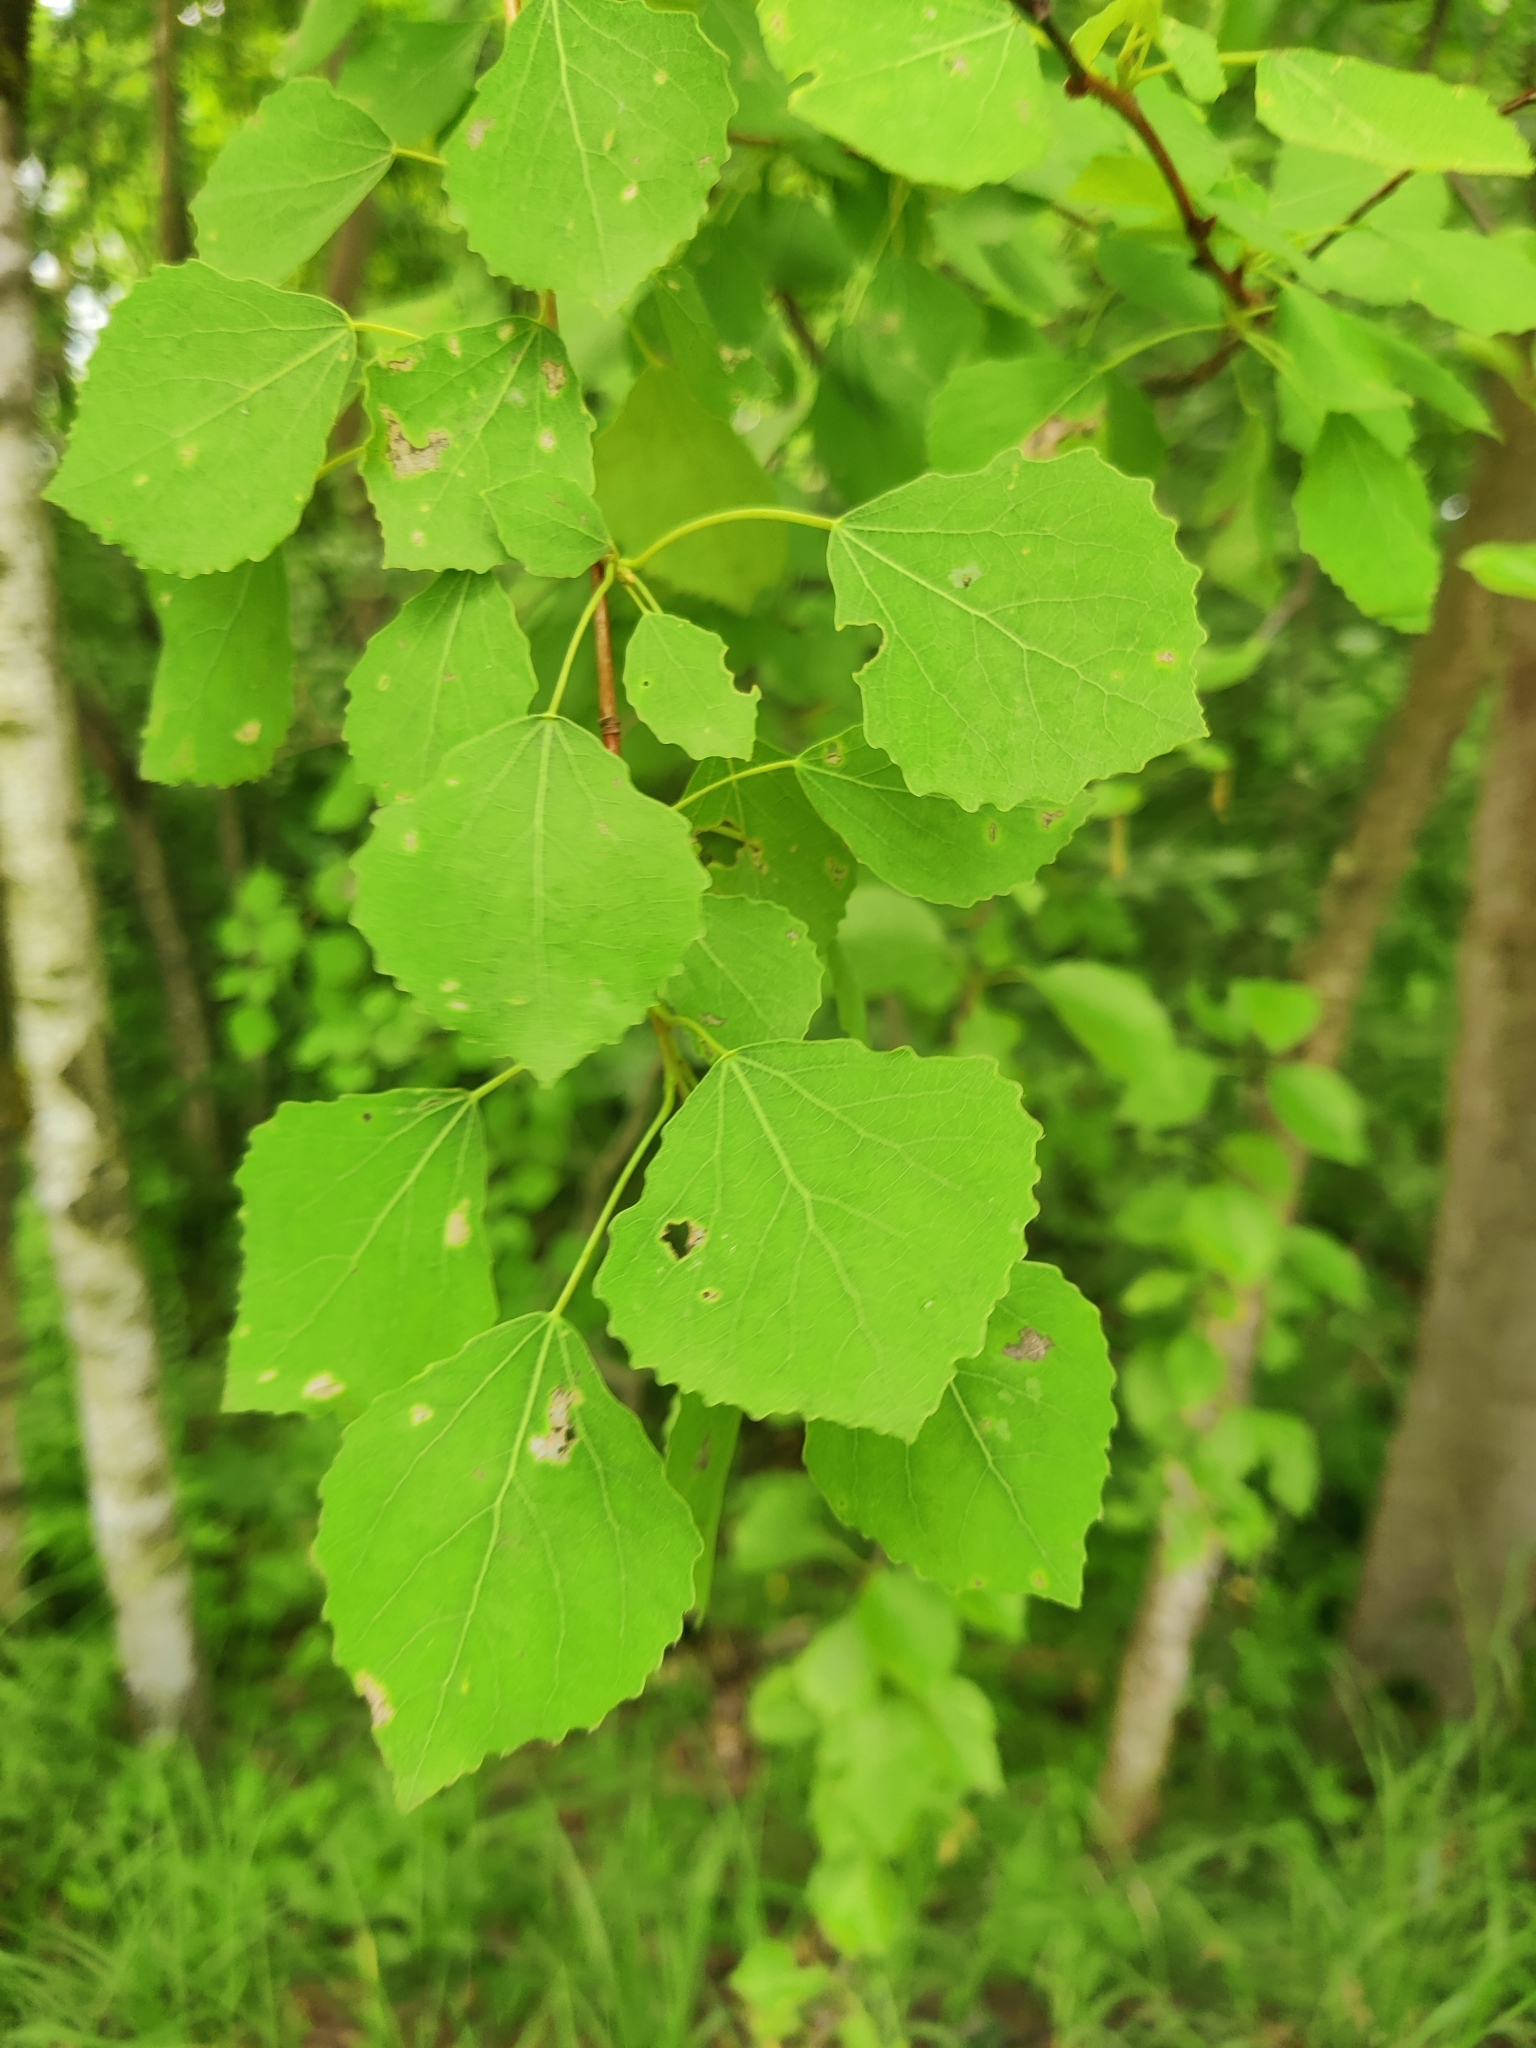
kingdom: Plantae
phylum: Tracheophyta
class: Magnoliopsida
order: Malpighiales
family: Salicaceae
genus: Populus
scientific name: Populus tremula
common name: European aspen
